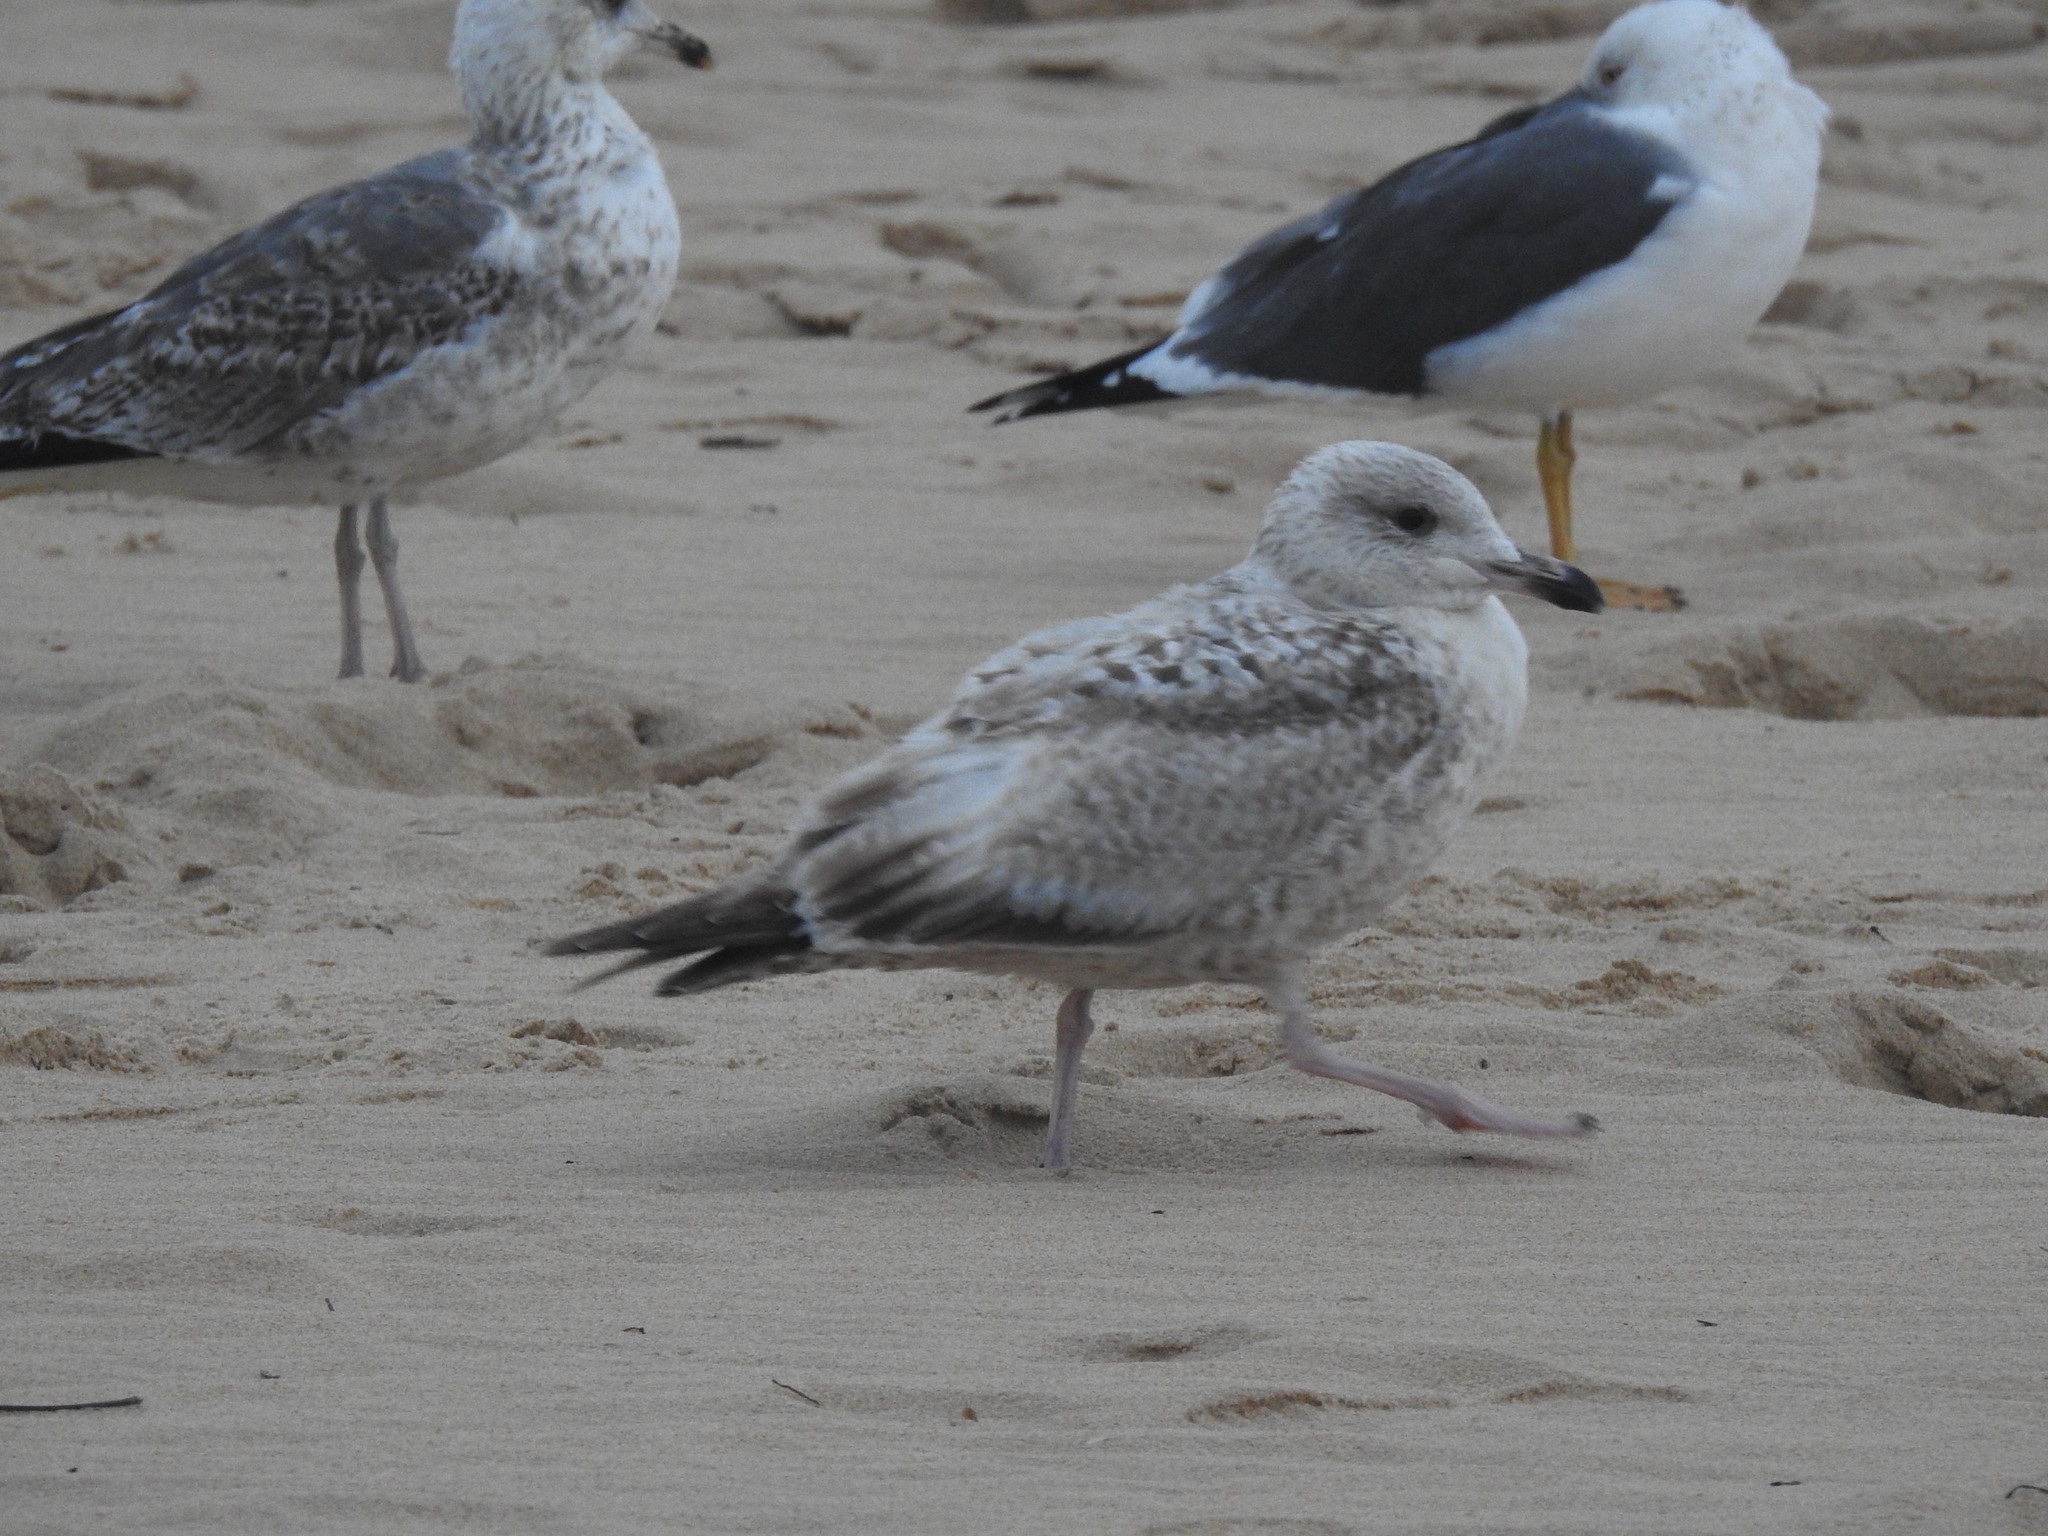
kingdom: Animalia
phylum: Chordata
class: Aves
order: Charadriiformes
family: Laridae
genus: Larus
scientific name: Larus argentatus
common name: Herring gull
